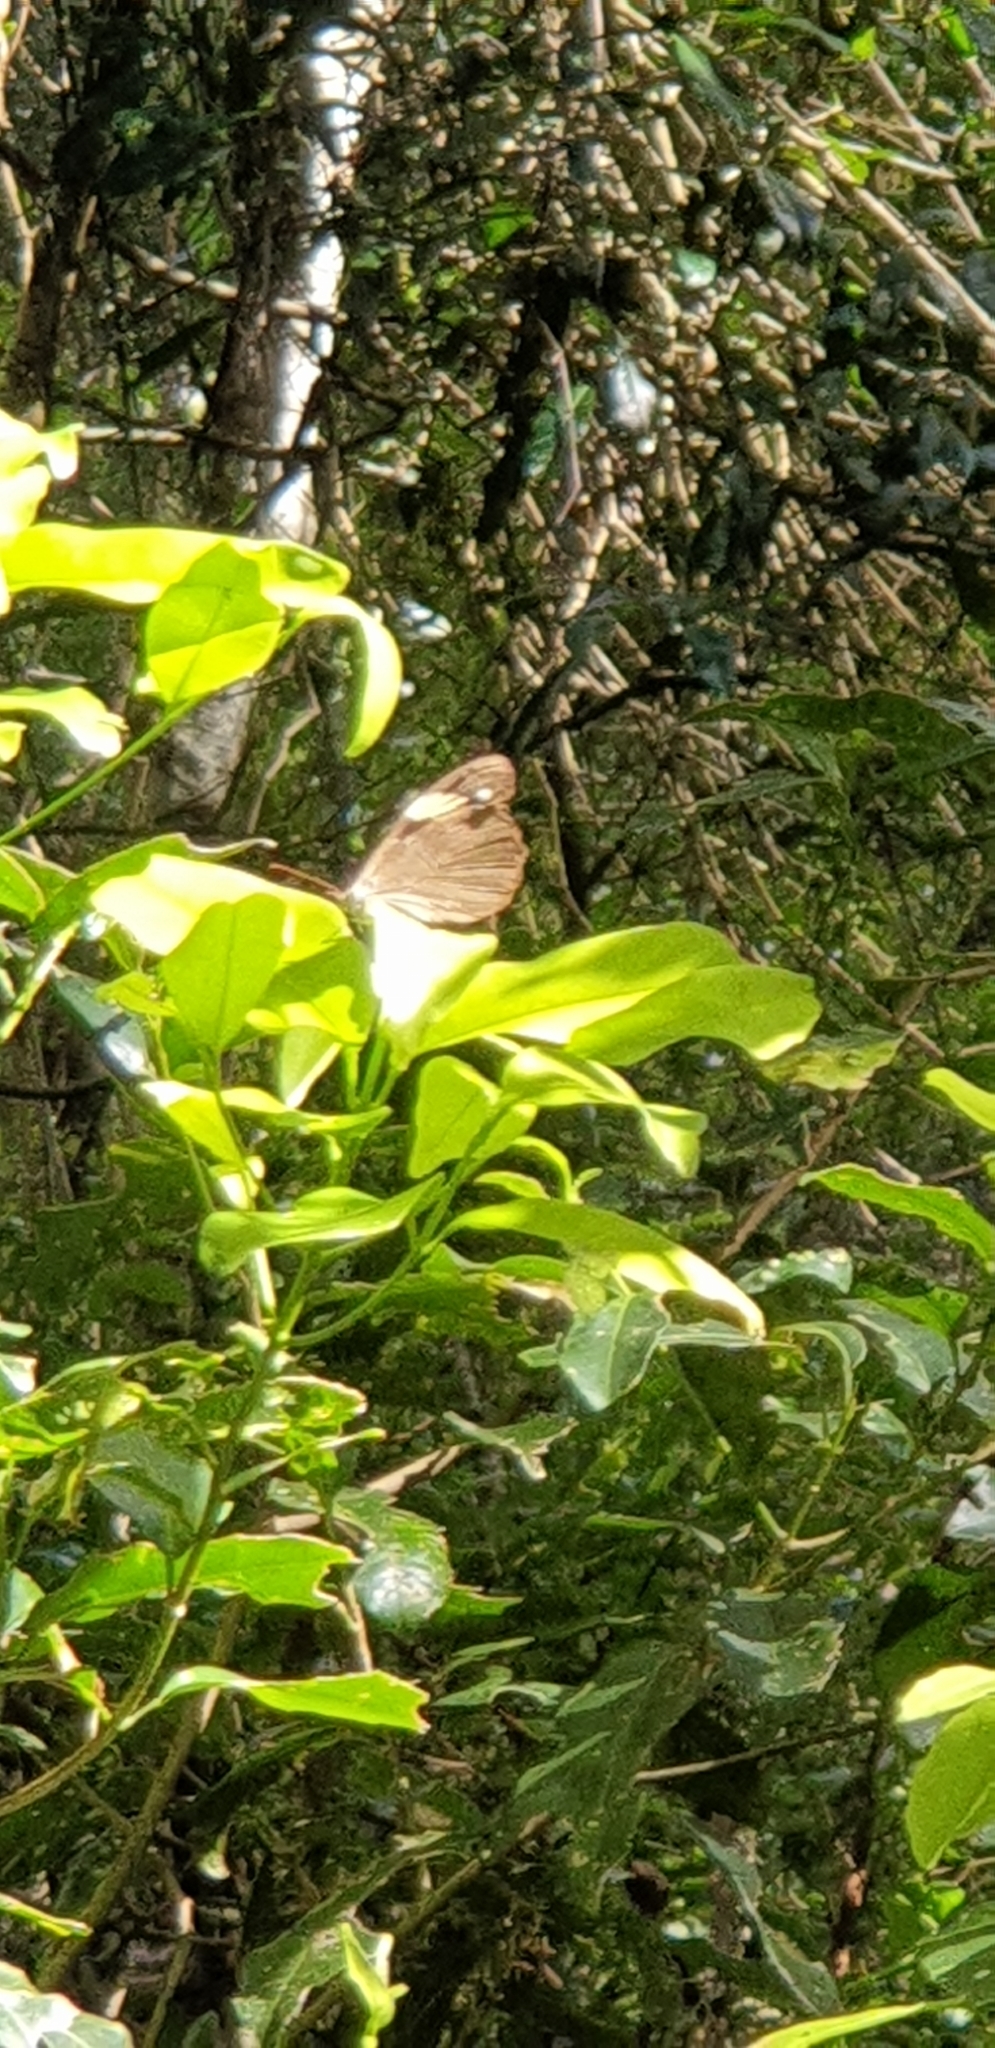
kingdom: Animalia
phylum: Arthropoda
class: Insecta
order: Lepidoptera
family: Nymphalidae
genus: Heteronympha
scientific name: Heteronympha mirifica
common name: Wonder brown
